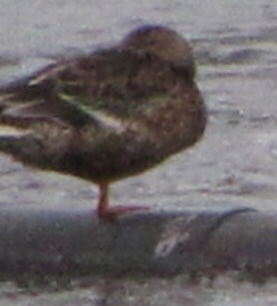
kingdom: Animalia
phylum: Chordata
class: Aves
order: Anseriformes
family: Anatidae
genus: Anas
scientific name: Anas platyrhynchos
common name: Mallard
